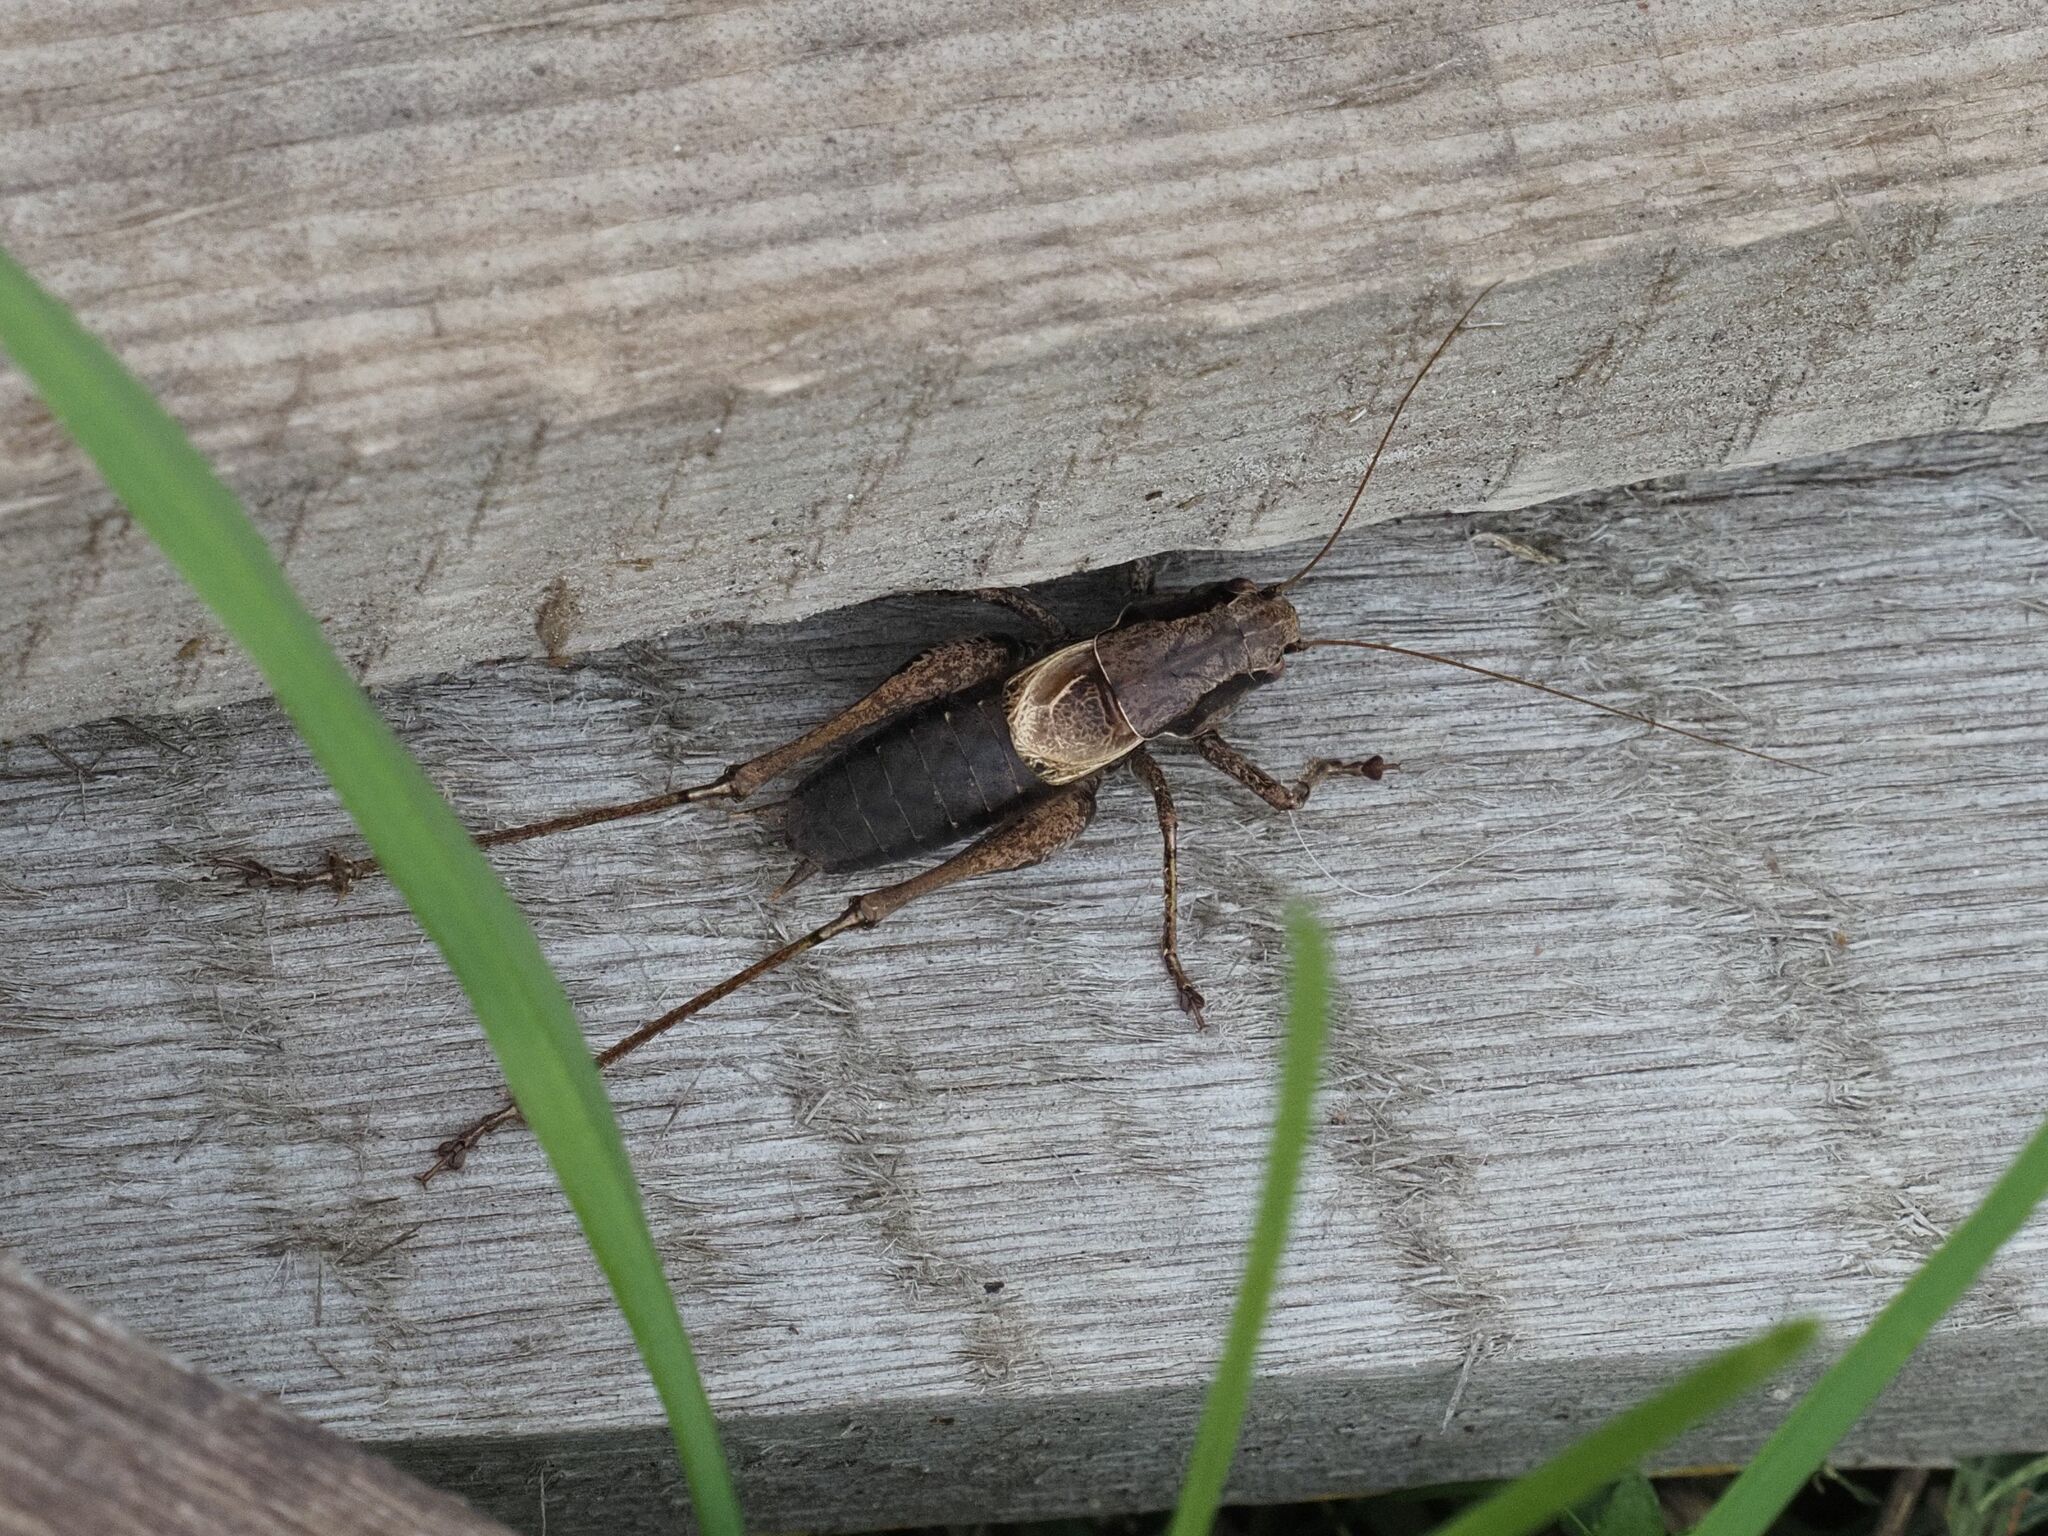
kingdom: Animalia
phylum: Arthropoda
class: Insecta
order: Orthoptera
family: Tettigoniidae
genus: Pholidoptera
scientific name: Pholidoptera griseoaptera
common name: Dark bush-cricket
